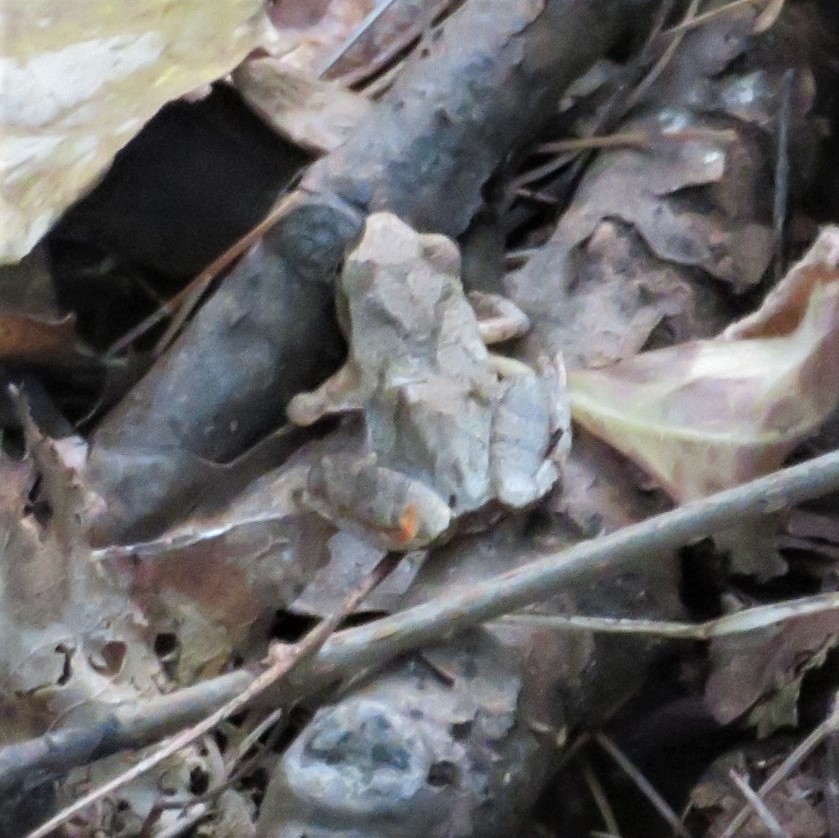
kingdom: Animalia
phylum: Chordata
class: Amphibia
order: Anura
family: Hylidae
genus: Pseudacris
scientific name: Pseudacris crucifer
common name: Spring peeper
